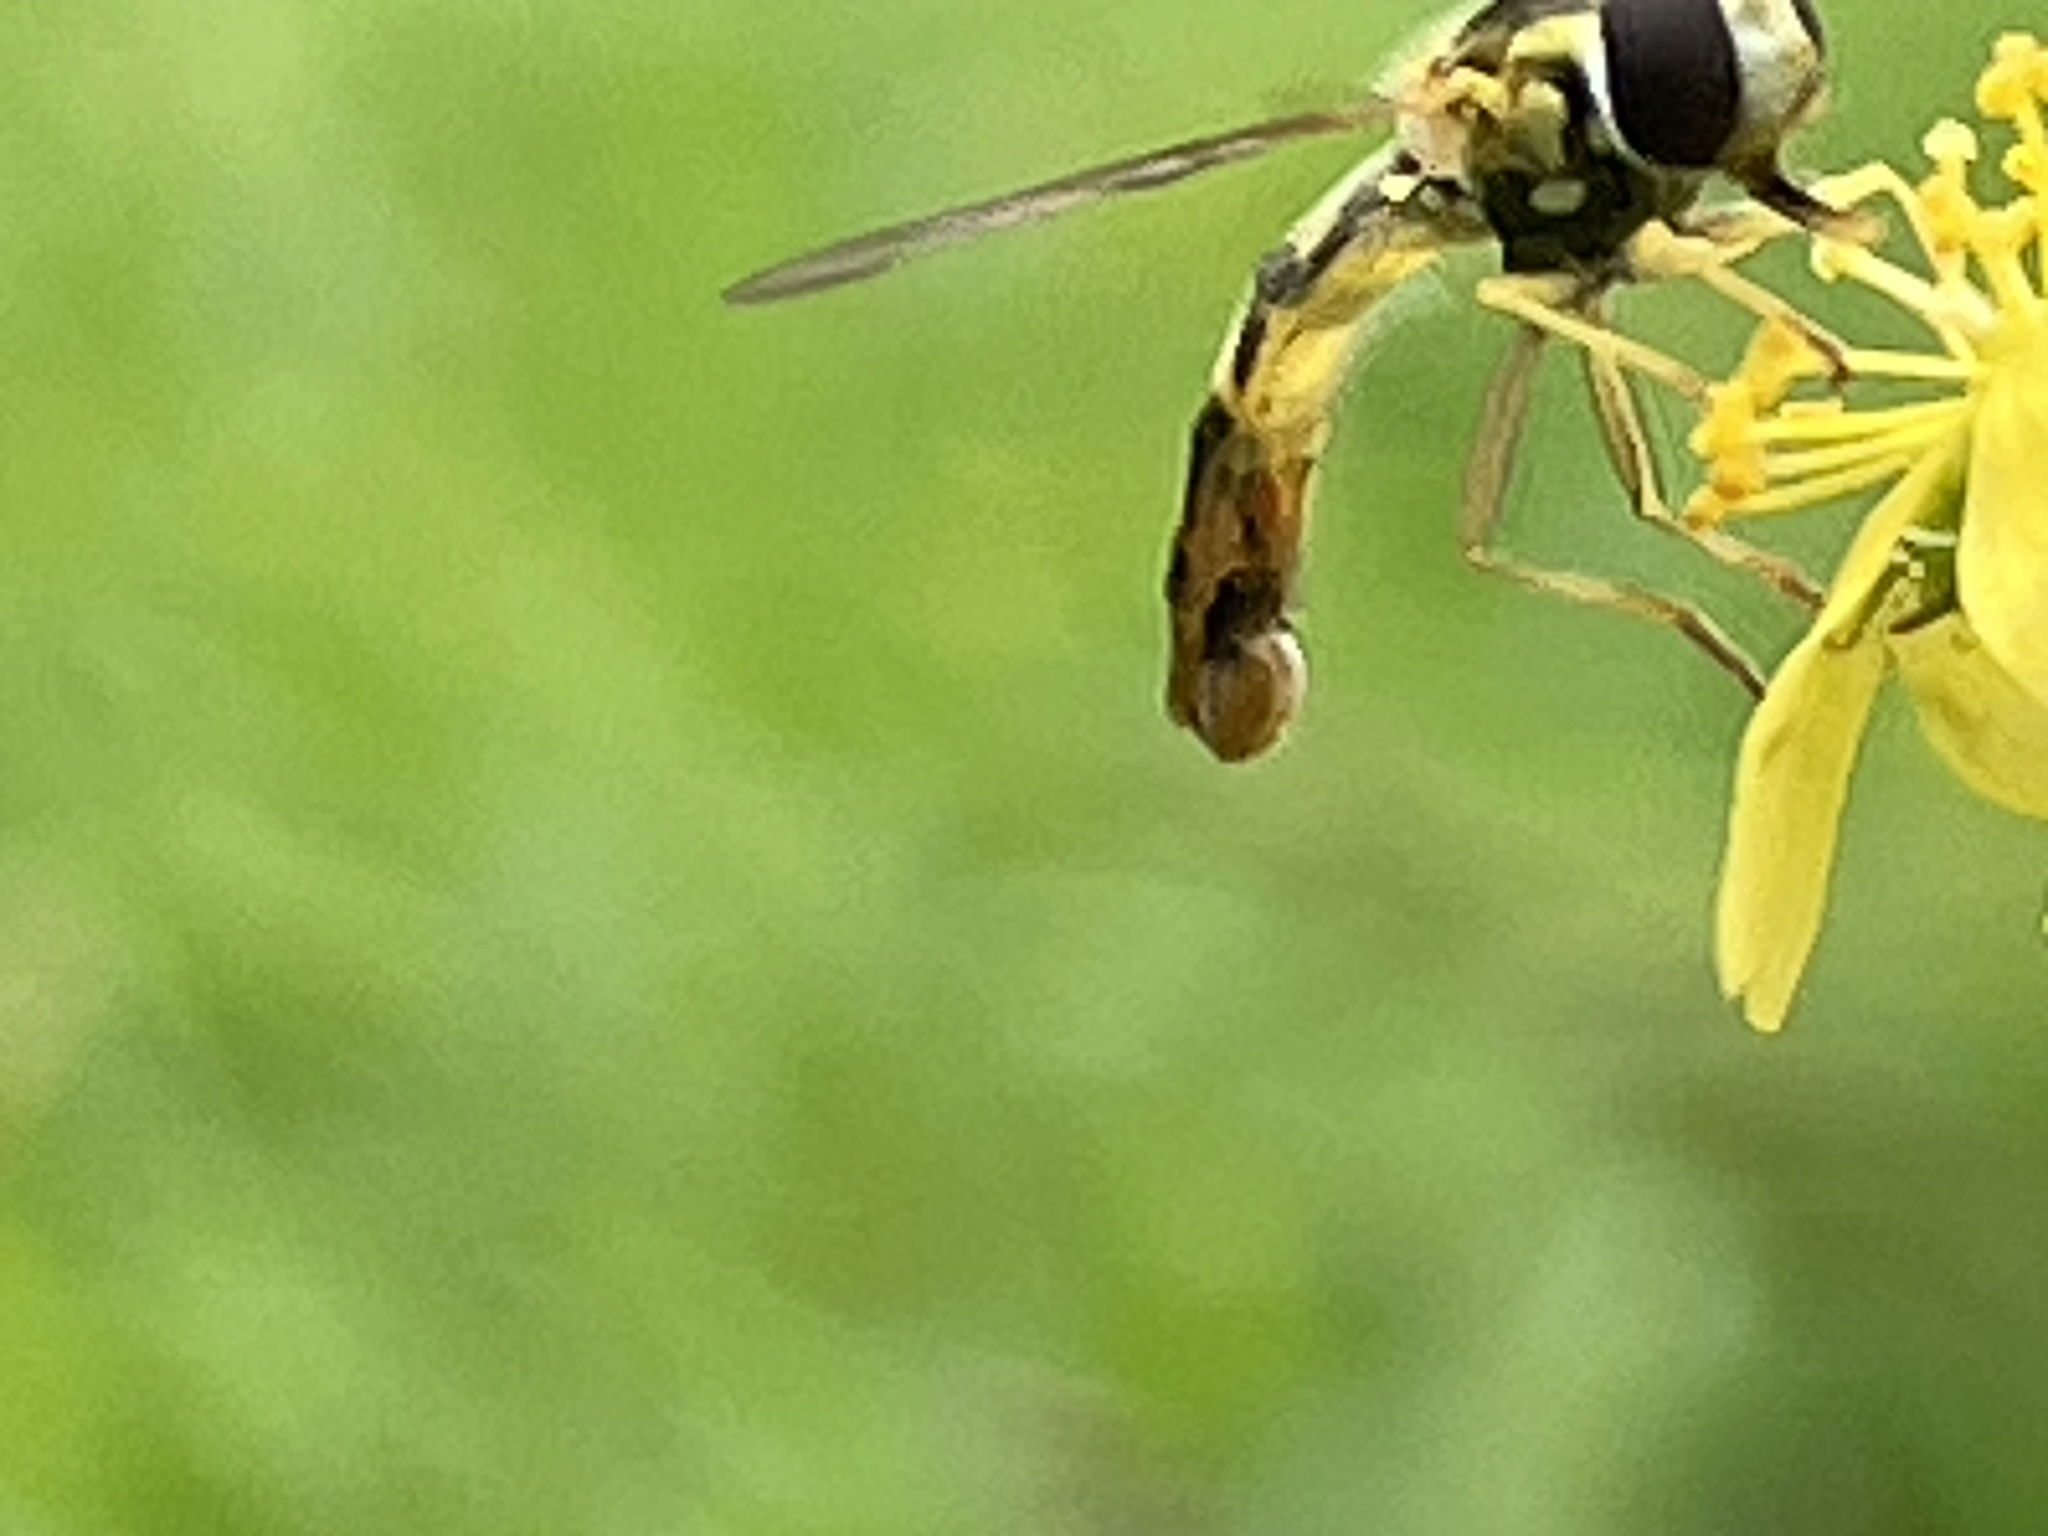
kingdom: Animalia
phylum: Arthropoda
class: Insecta
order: Diptera
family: Syrphidae
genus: Sphaerophoria
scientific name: Sphaerophoria scripta
